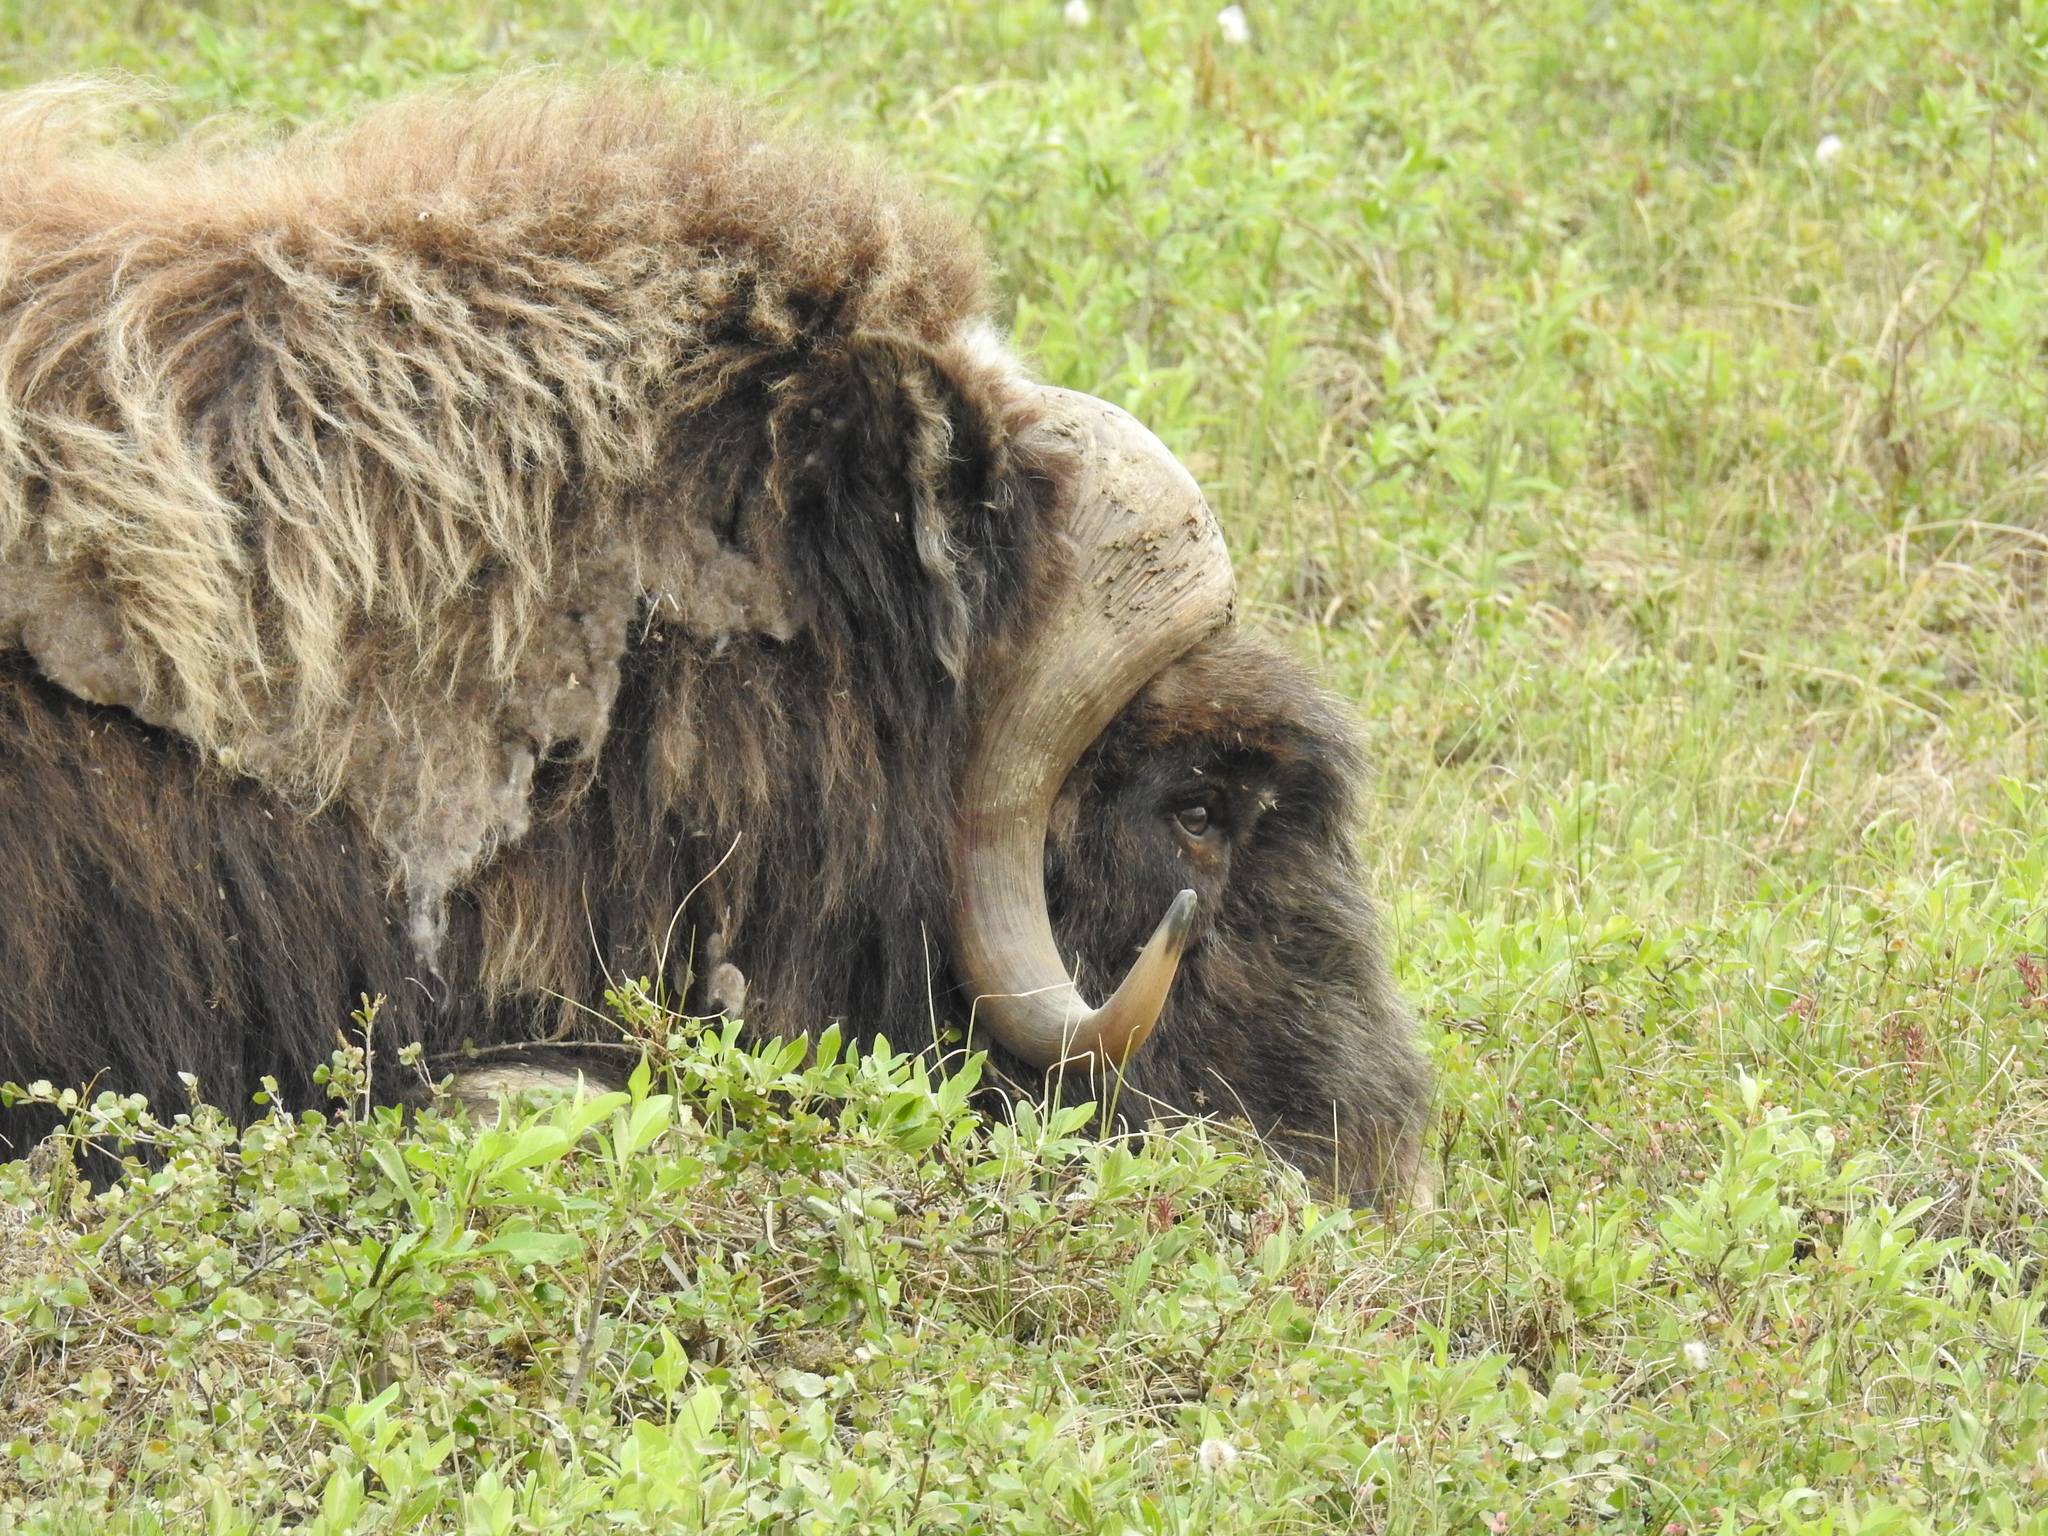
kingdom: Animalia
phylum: Chordata
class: Mammalia
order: Artiodactyla
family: Bovidae
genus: Ovibos
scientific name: Ovibos moschatus
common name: Muskox
